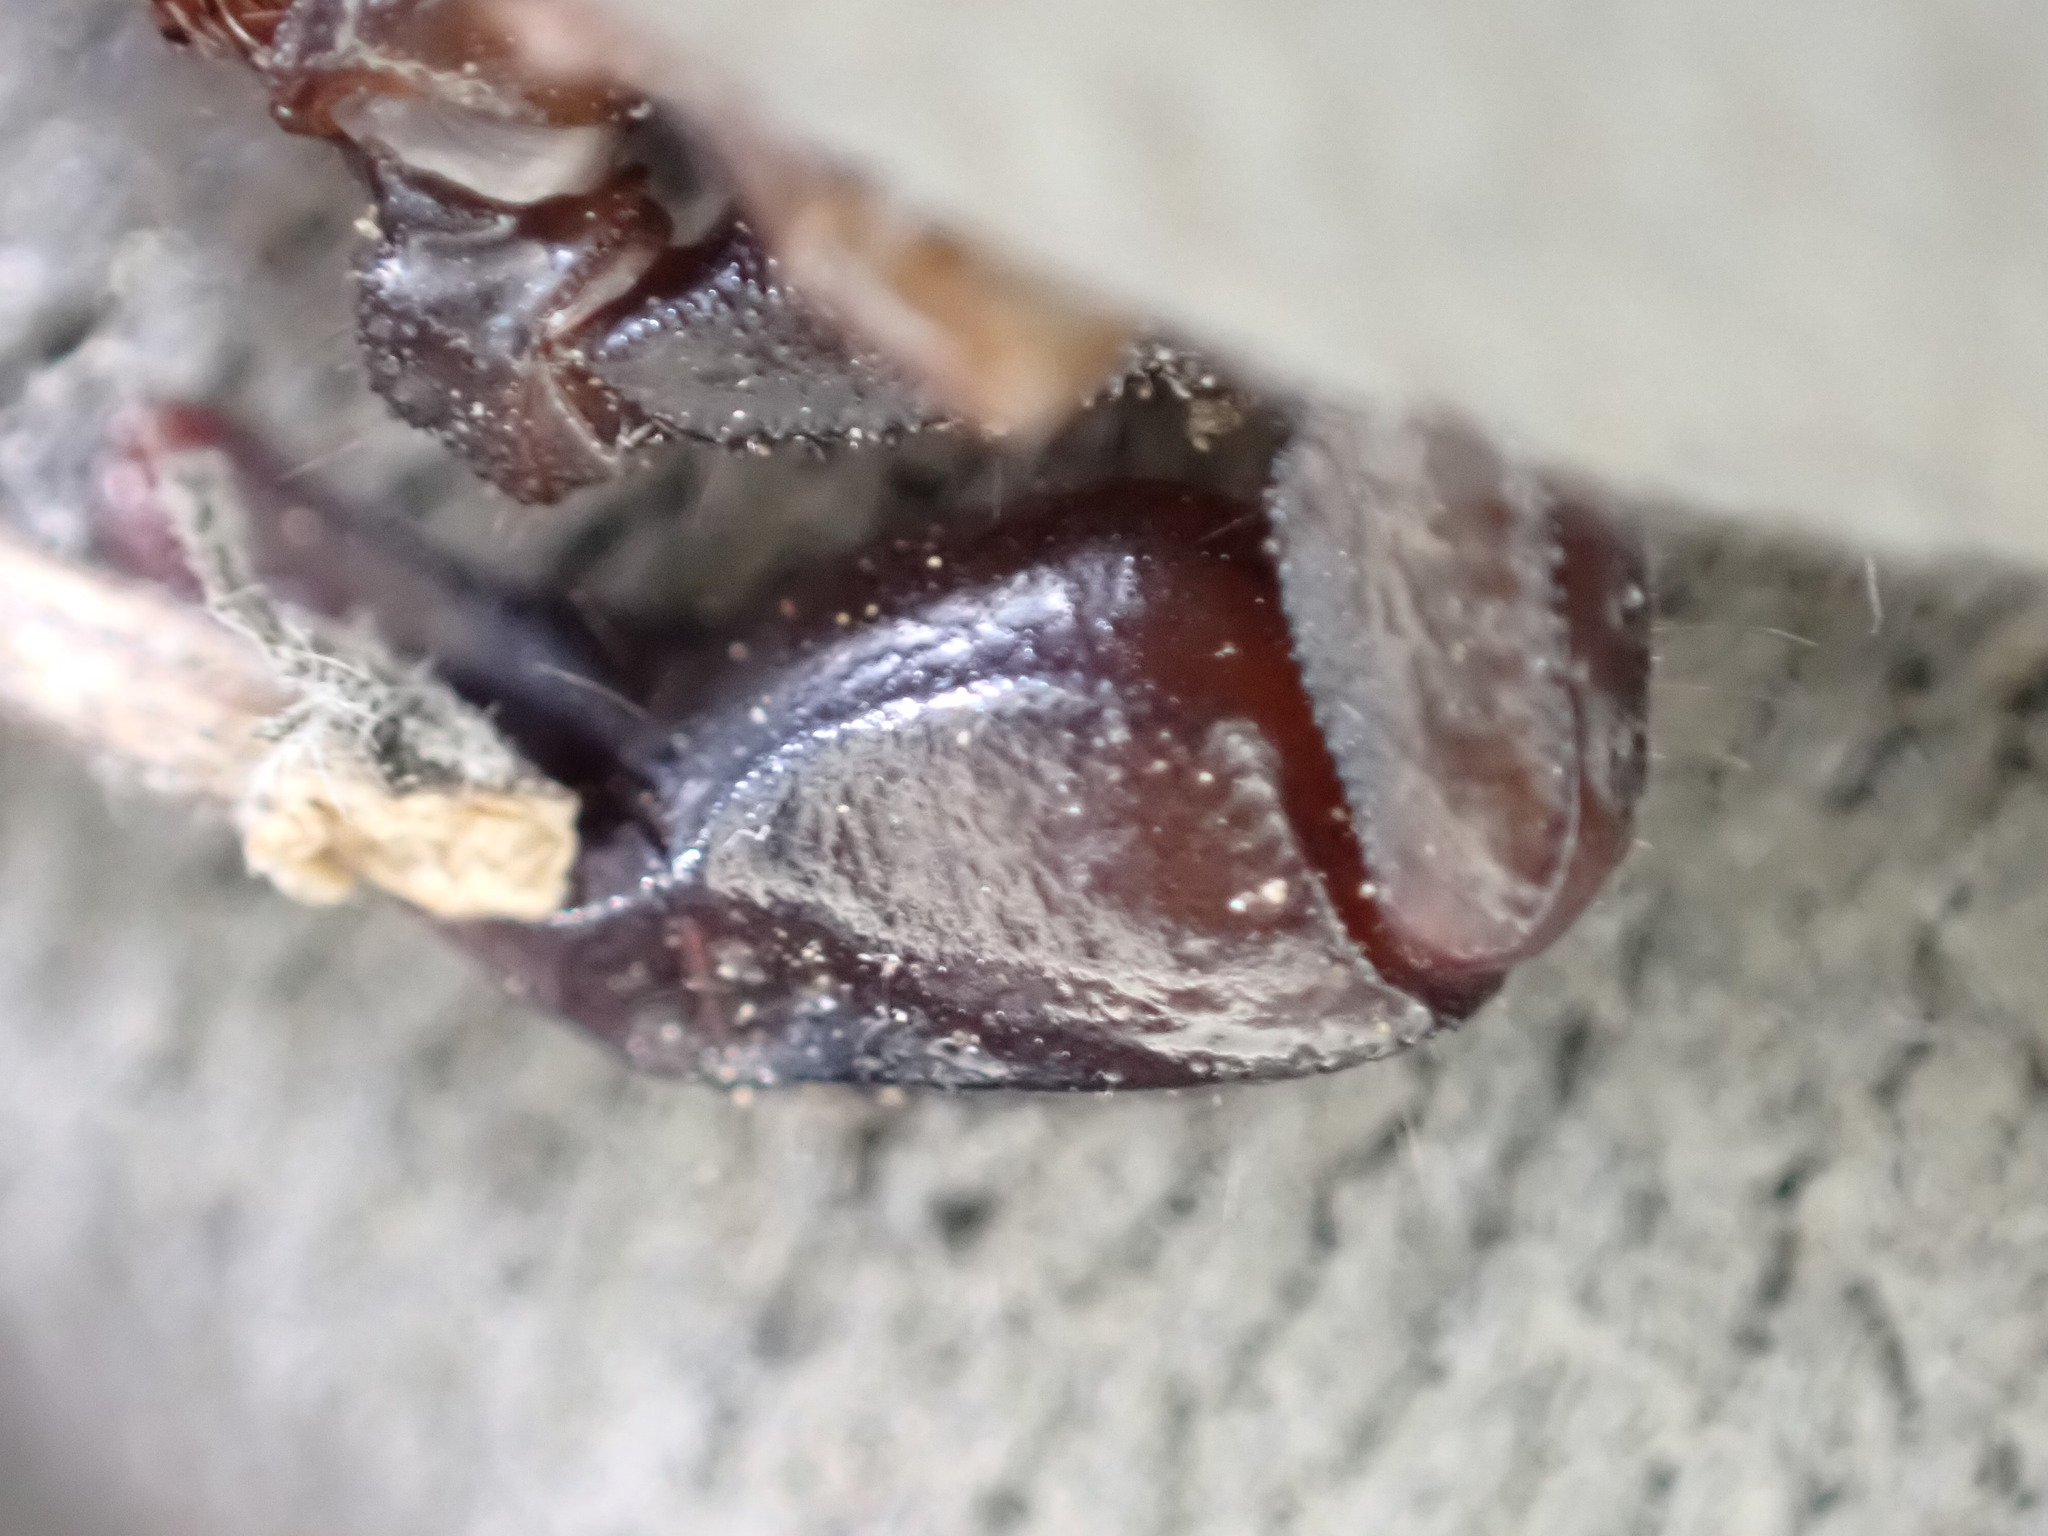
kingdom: Animalia
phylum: Arthropoda
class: Arachnida
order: Scorpiones
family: Euscorpiidae
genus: Euscorpius
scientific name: Euscorpius niciensis
